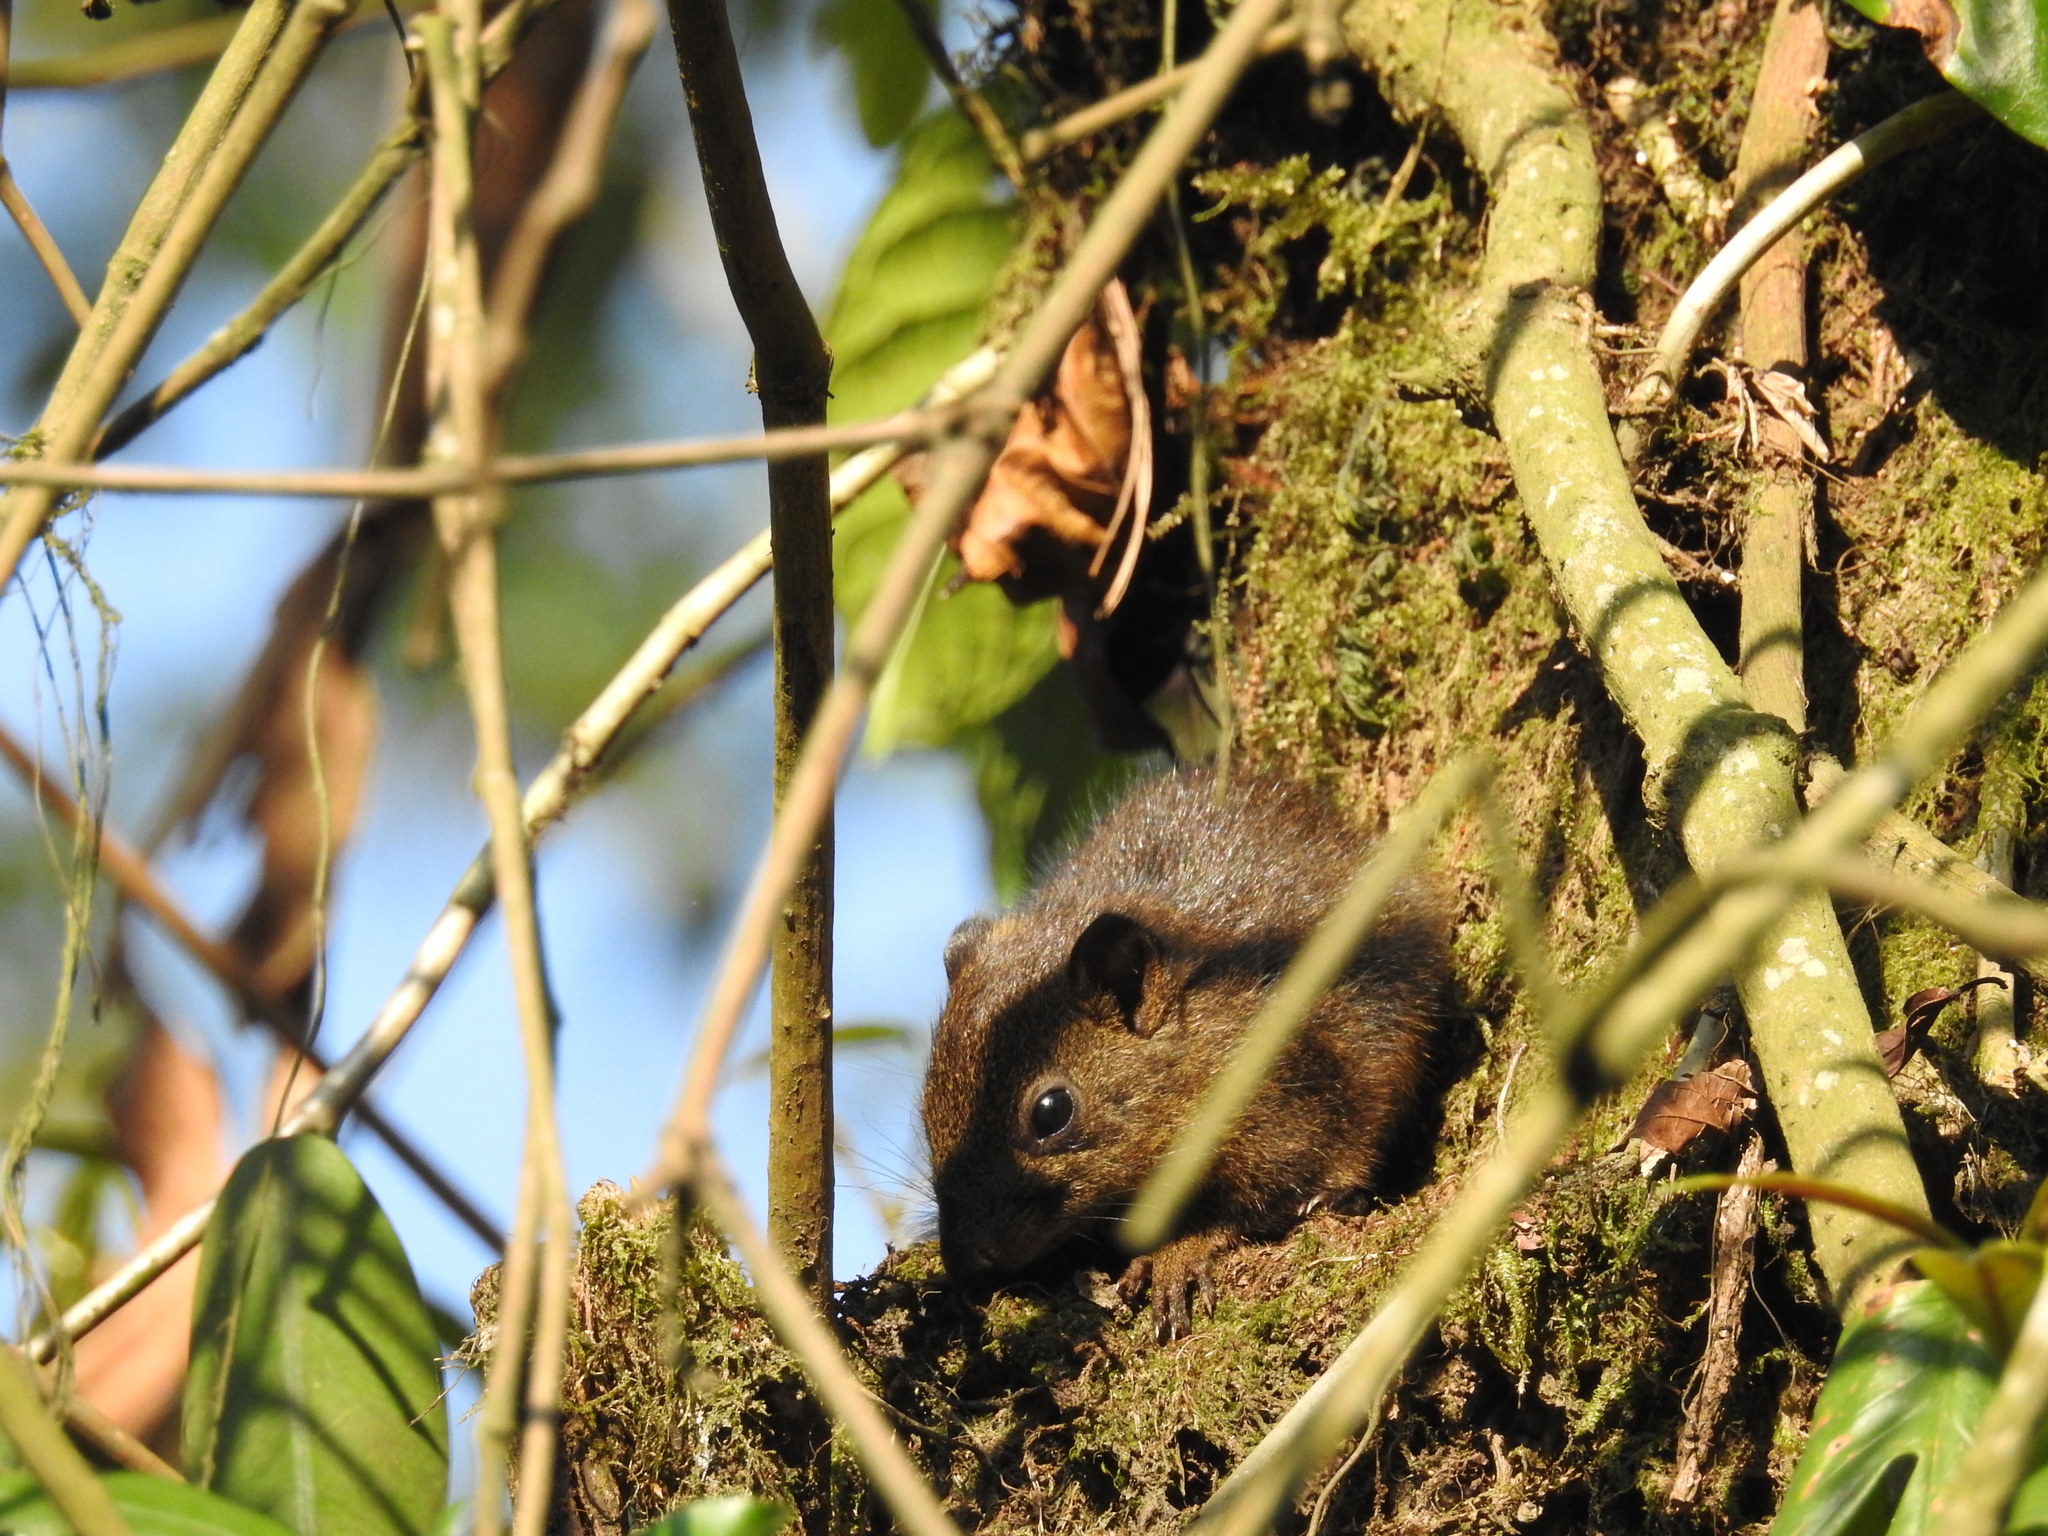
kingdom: Animalia
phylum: Chordata
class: Mammalia
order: Rodentia
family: Sciuridae
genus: Callosciurus
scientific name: Callosciurus pygerythrus
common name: Irrawaddy squirrel
